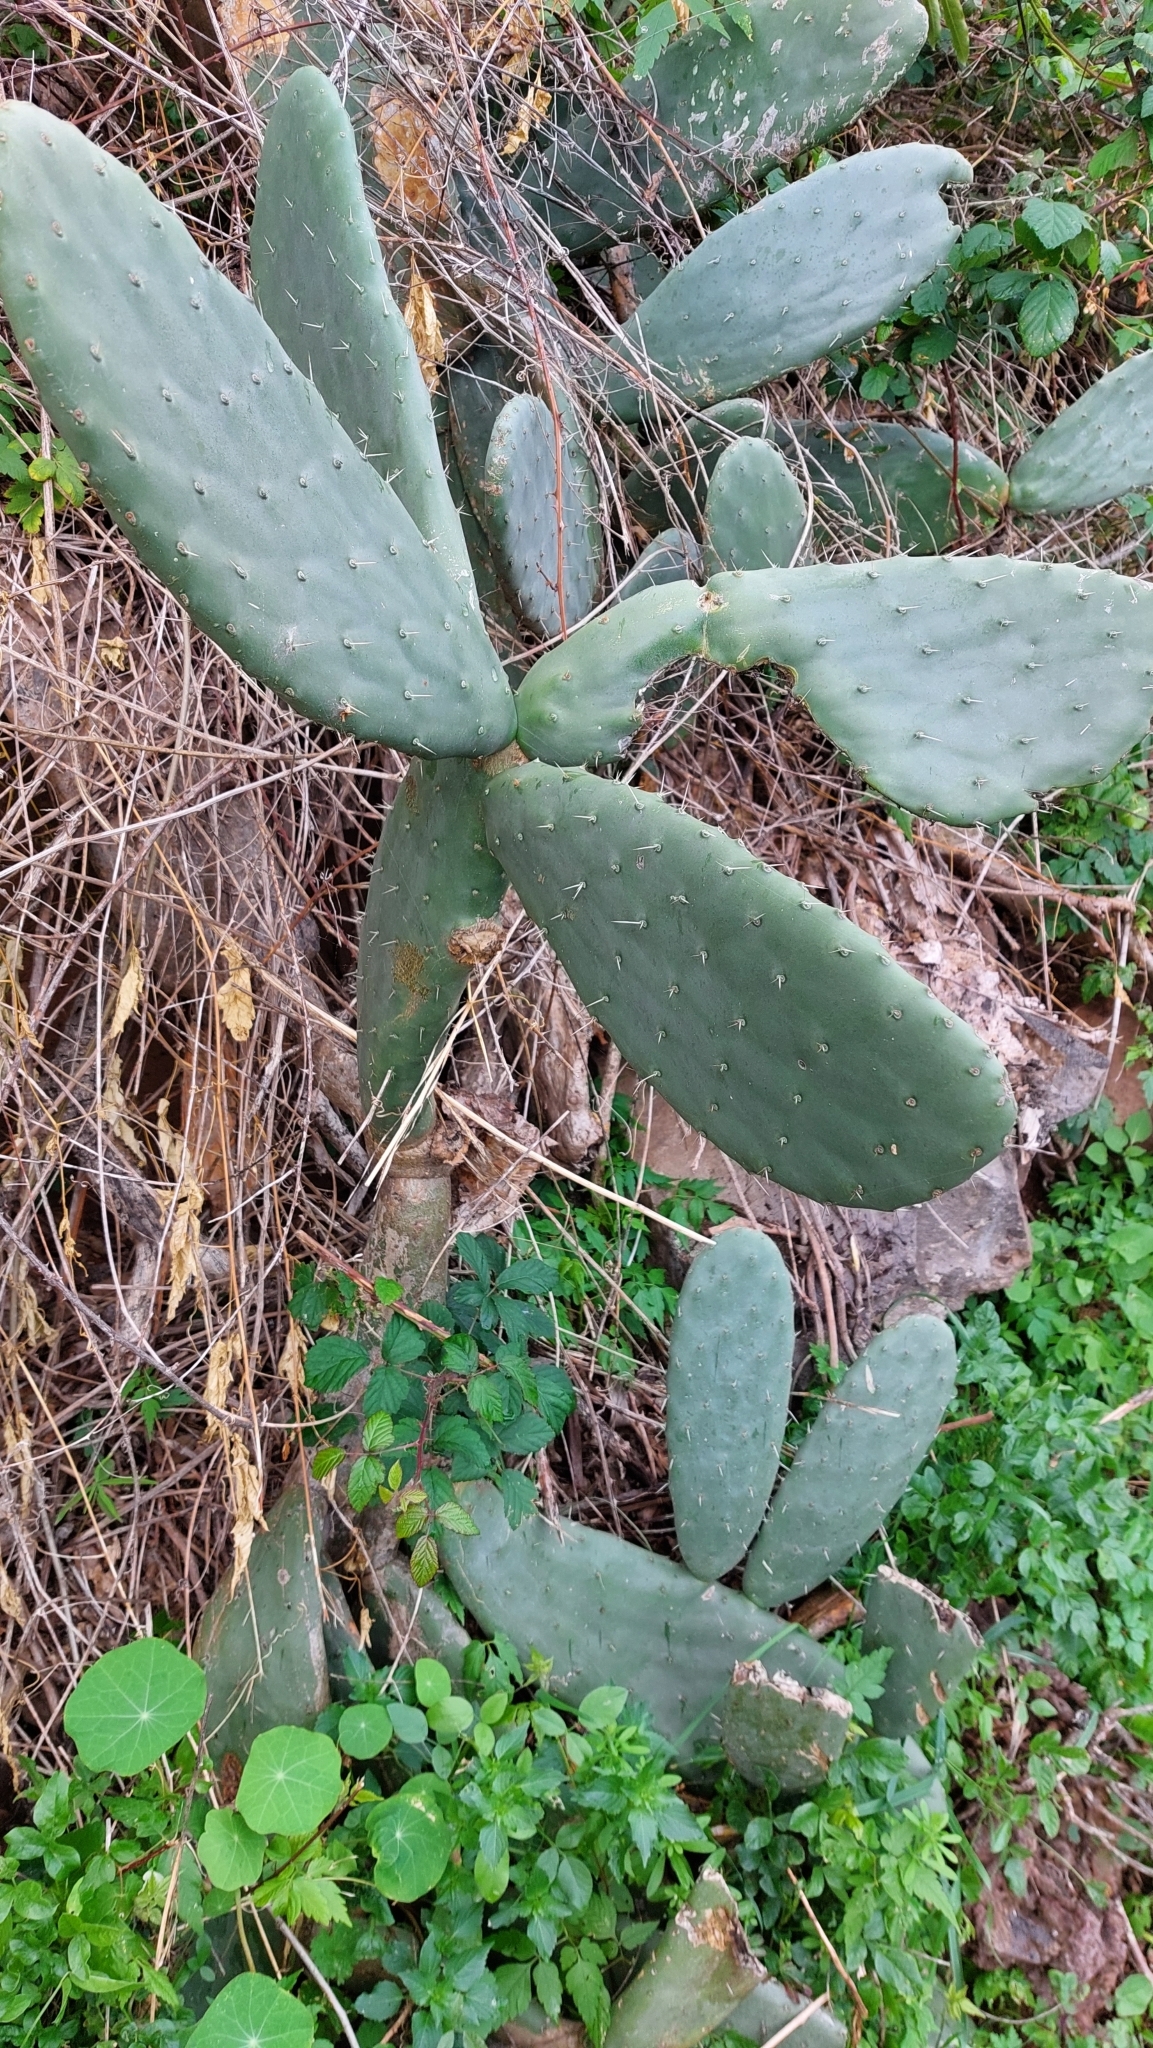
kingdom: Plantae
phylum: Tracheophyta
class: Magnoliopsida
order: Caryophyllales
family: Cactaceae
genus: Opuntia
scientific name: Opuntia ficus-indica
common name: Barbary fig
